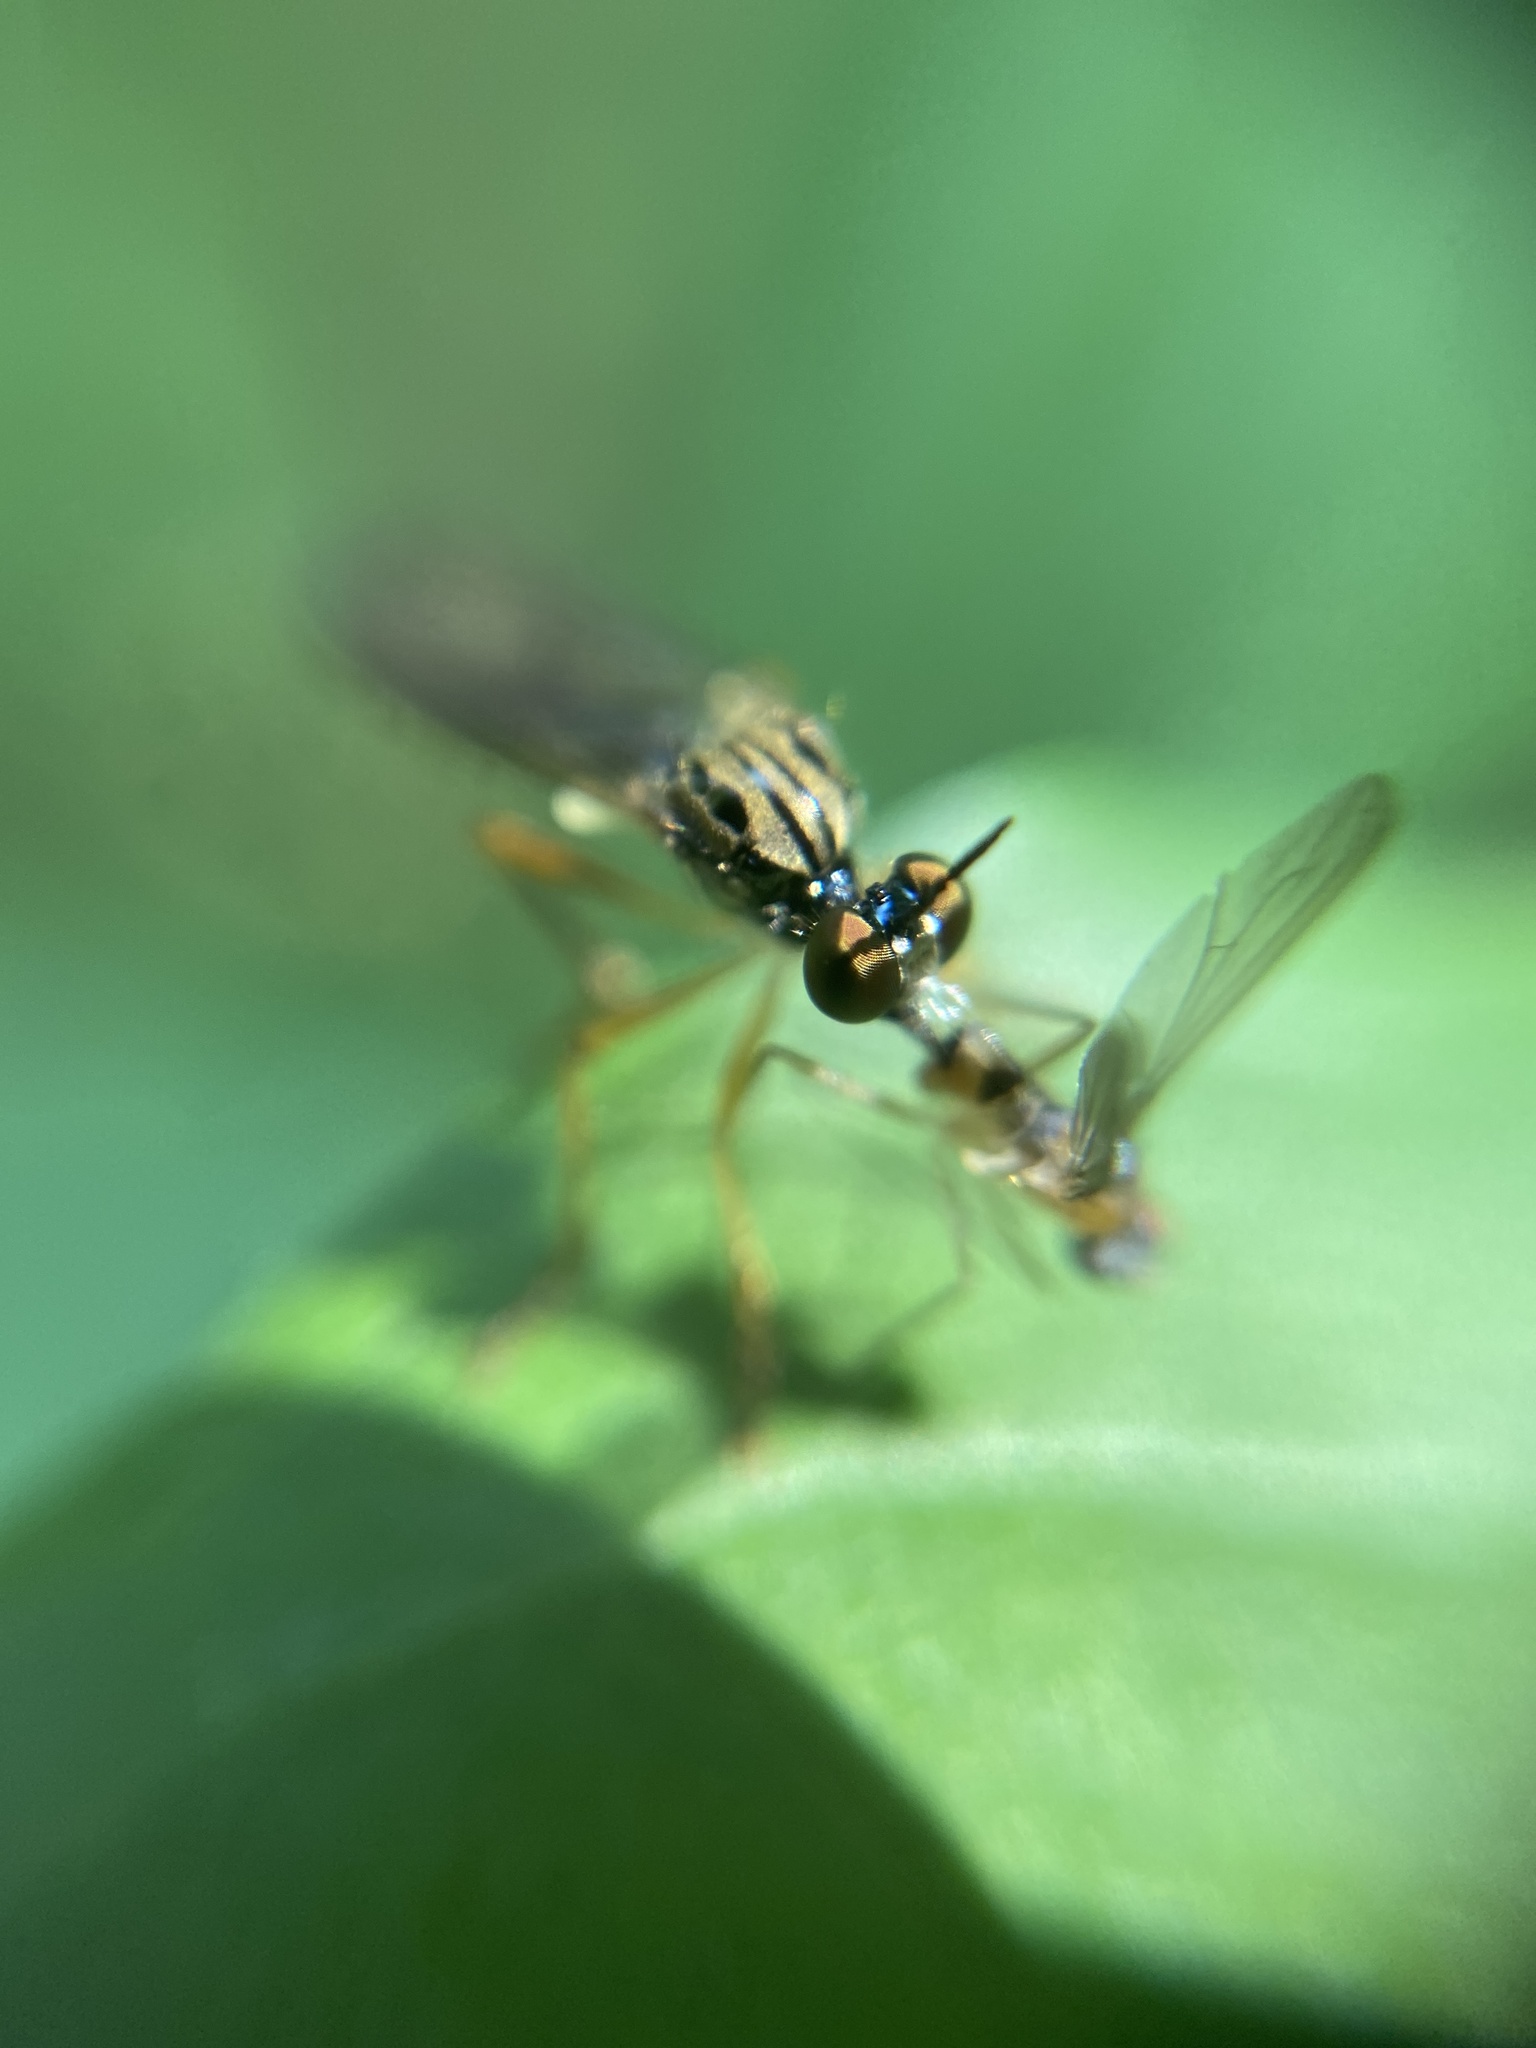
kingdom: Animalia
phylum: Arthropoda
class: Insecta
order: Diptera
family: Asilidae
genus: Dioctria
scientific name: Dioctria linearis
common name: Small yellow-legged robberfly
